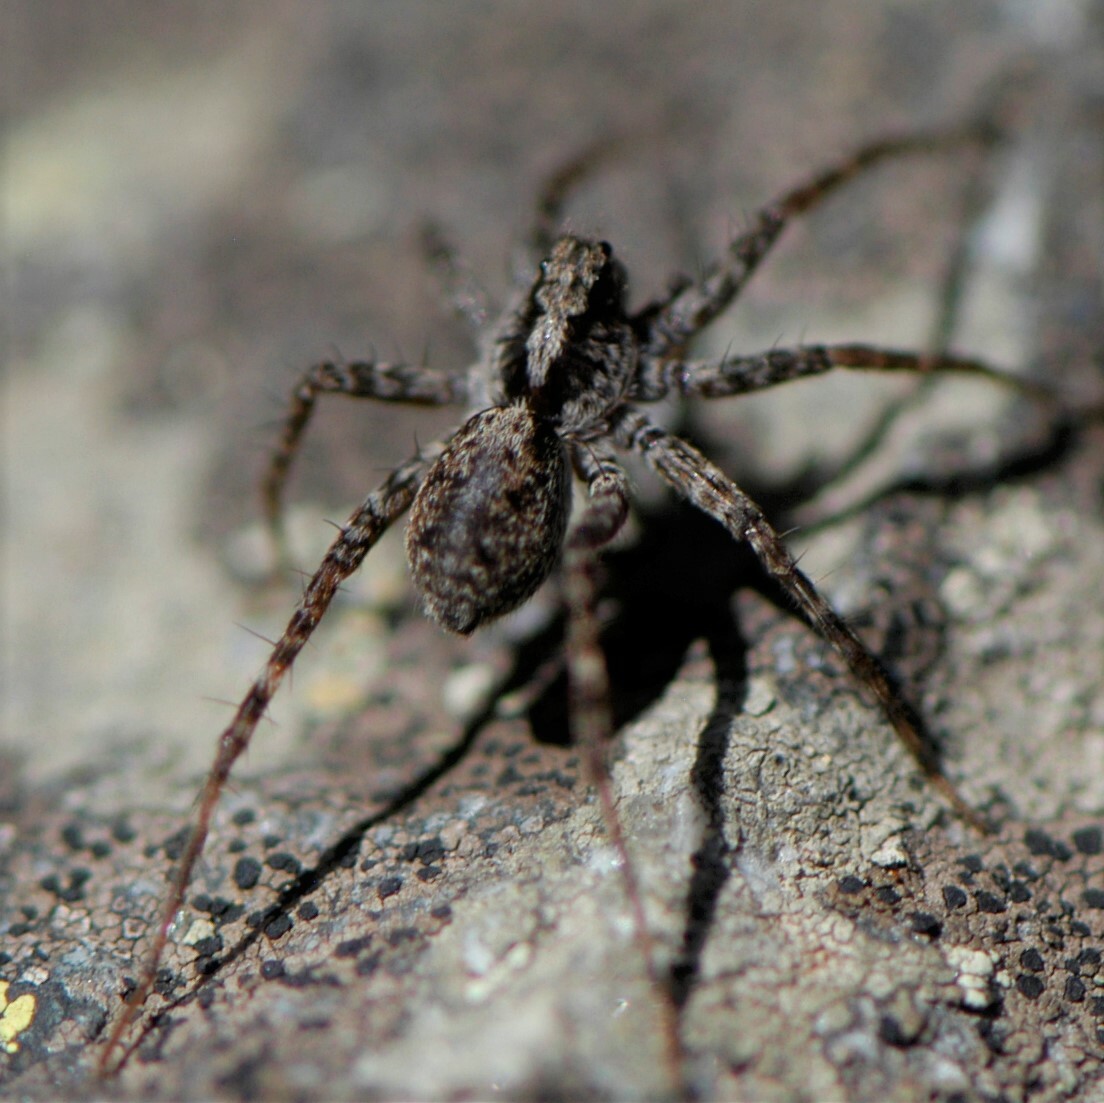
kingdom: Animalia
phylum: Arthropoda
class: Arachnida
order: Araneae
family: Lycosidae
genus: Pardosa
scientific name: Pardosa
